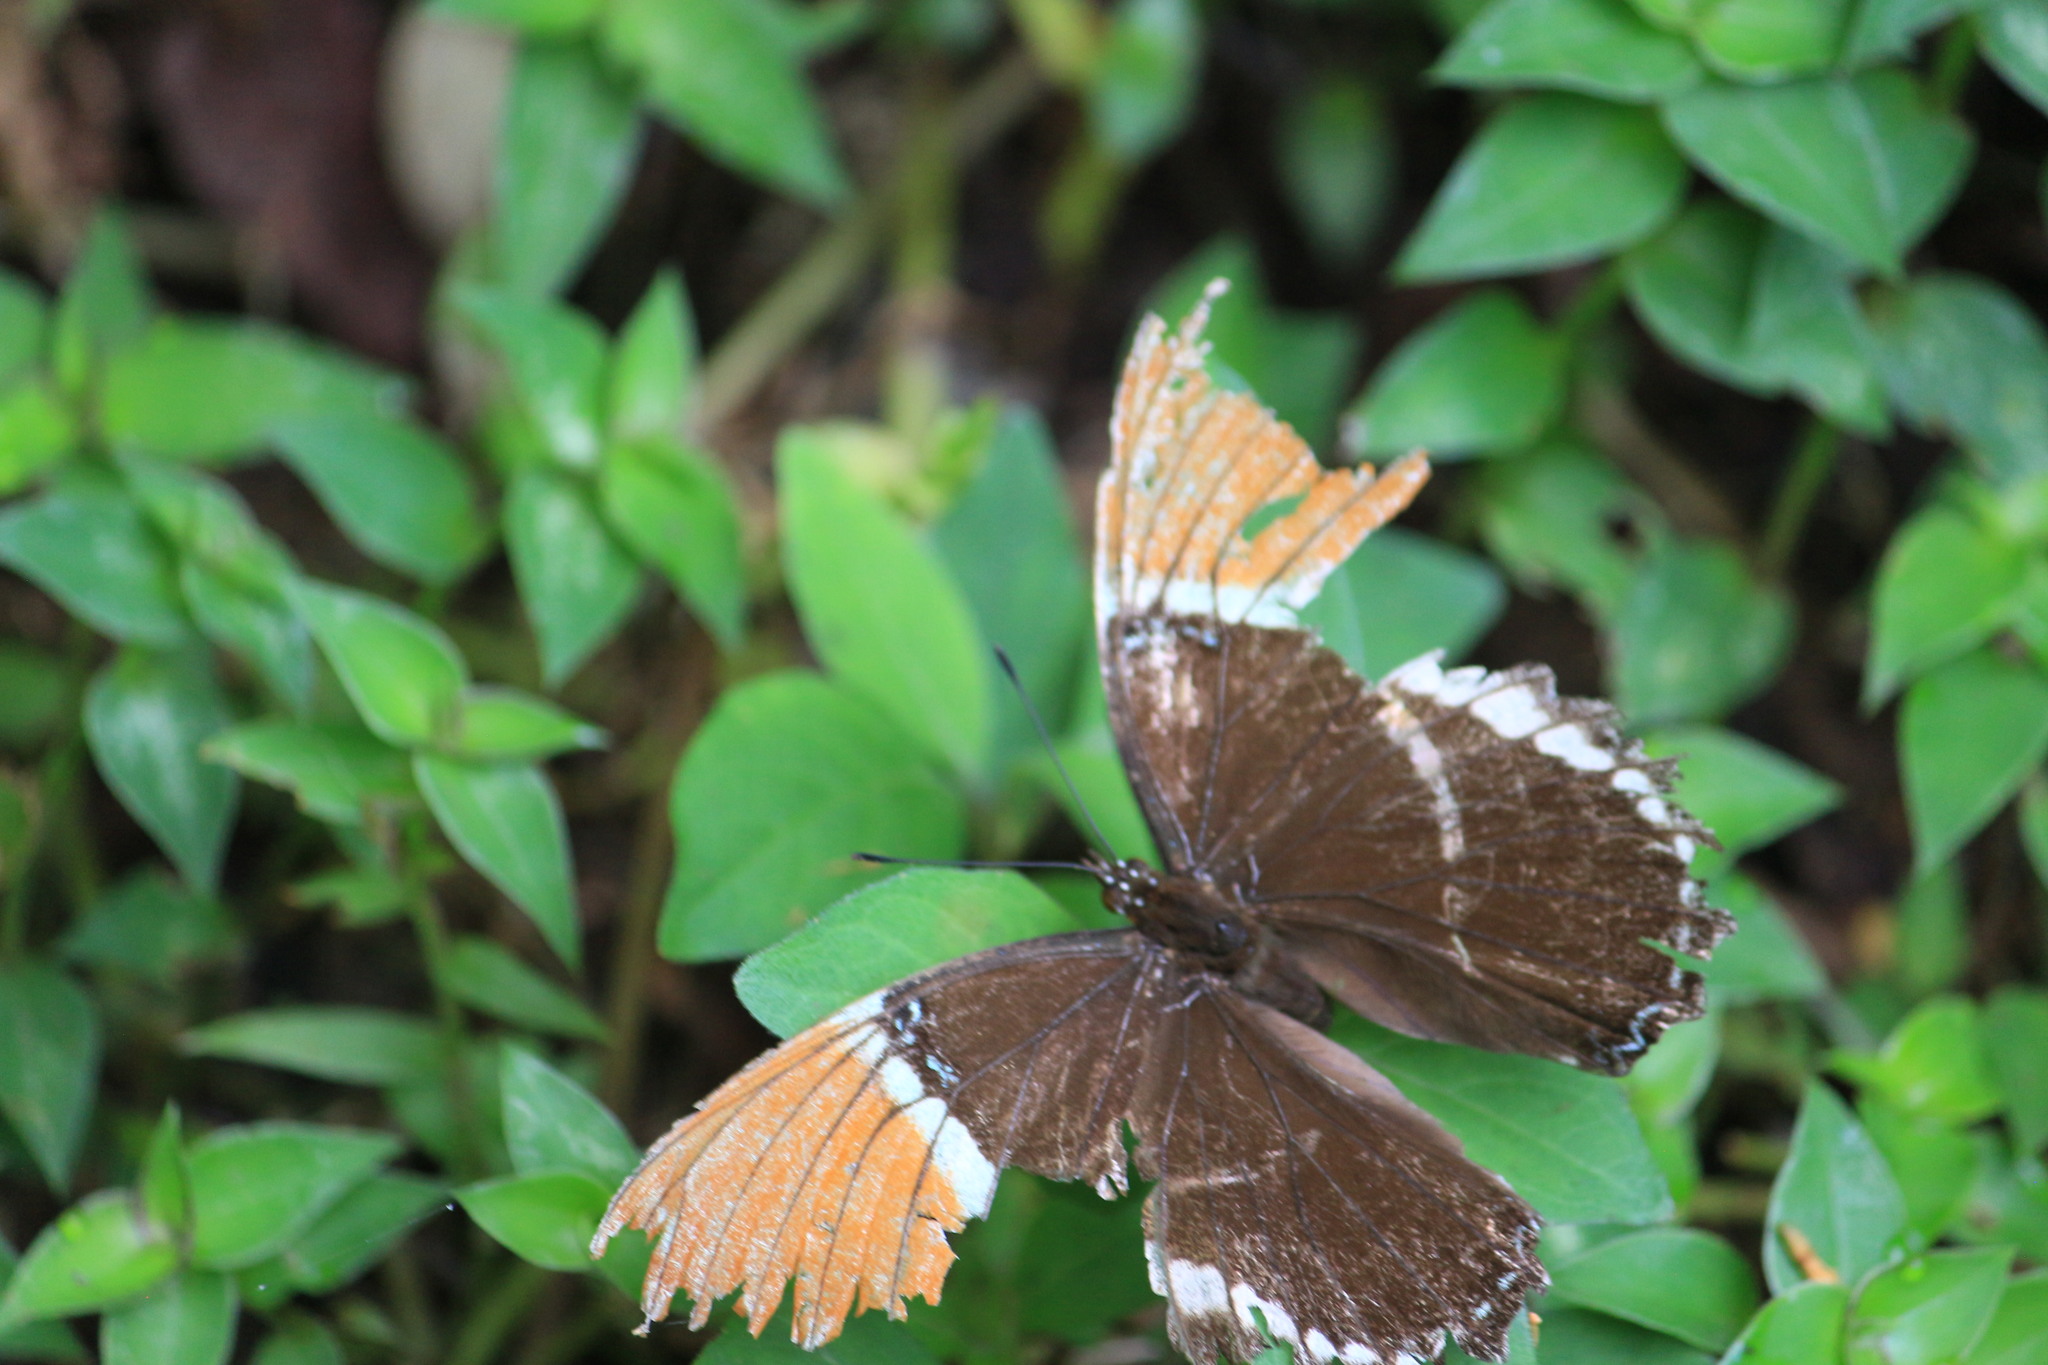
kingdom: Animalia
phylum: Arthropoda
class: Insecta
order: Lepidoptera
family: Nymphalidae
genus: Siproeta
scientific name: Siproeta epaphus
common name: Rusty-tipped page
